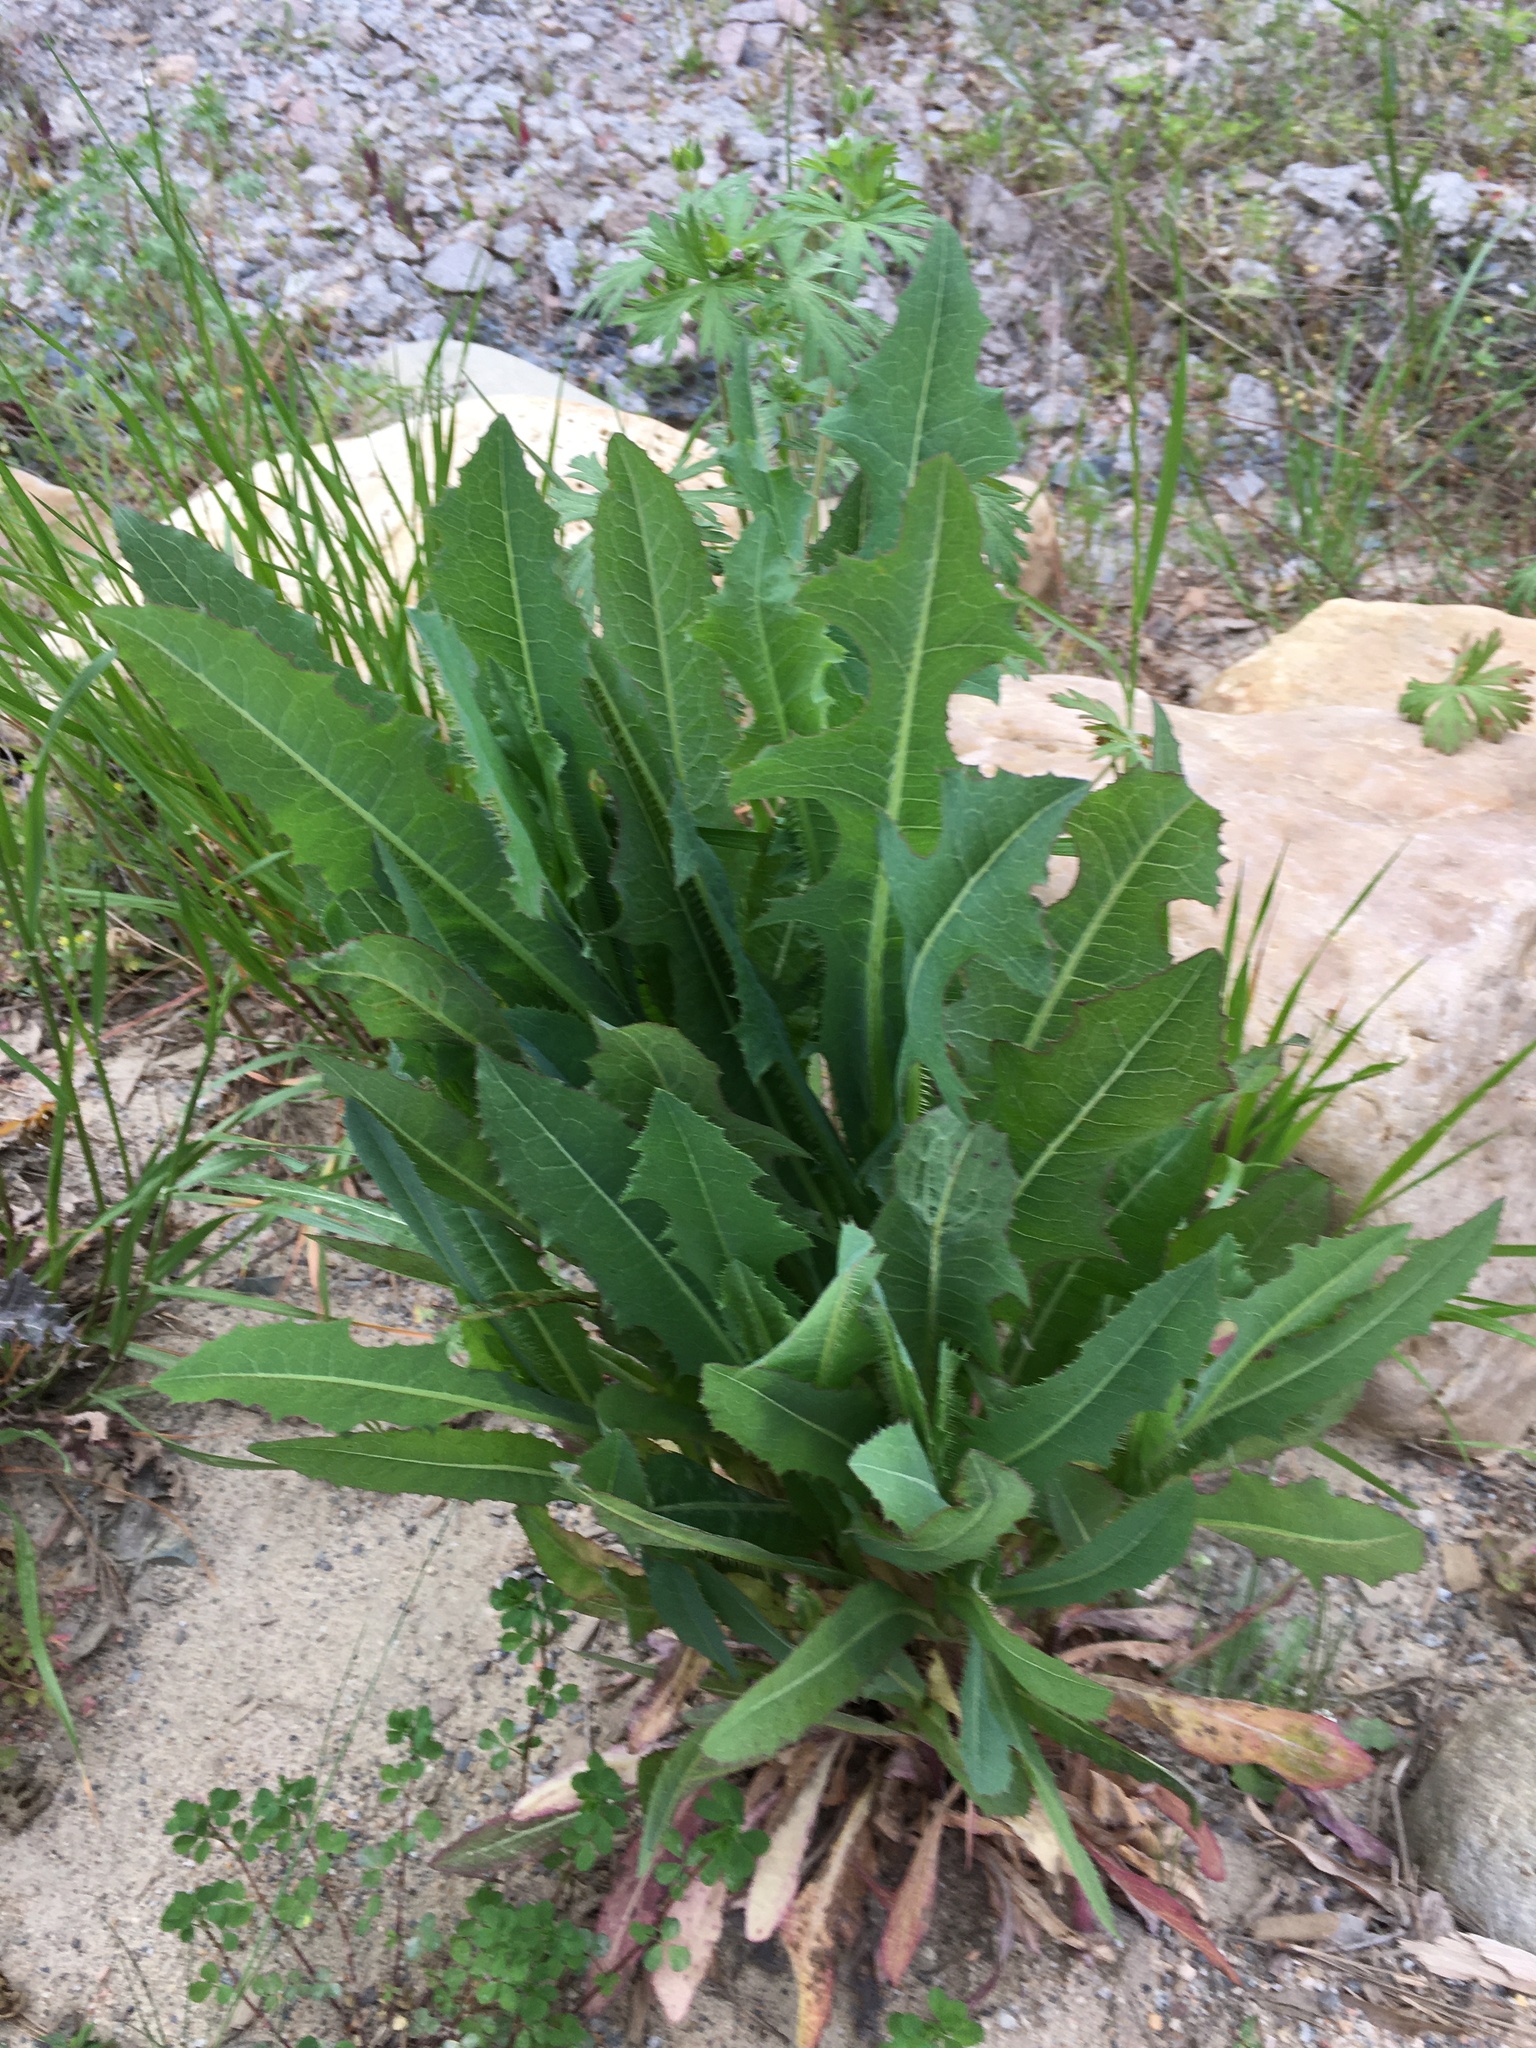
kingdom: Plantae
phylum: Tracheophyta
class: Magnoliopsida
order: Asterales
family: Asteraceae
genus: Lactuca
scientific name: Lactuca serriola
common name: Prickly lettuce
